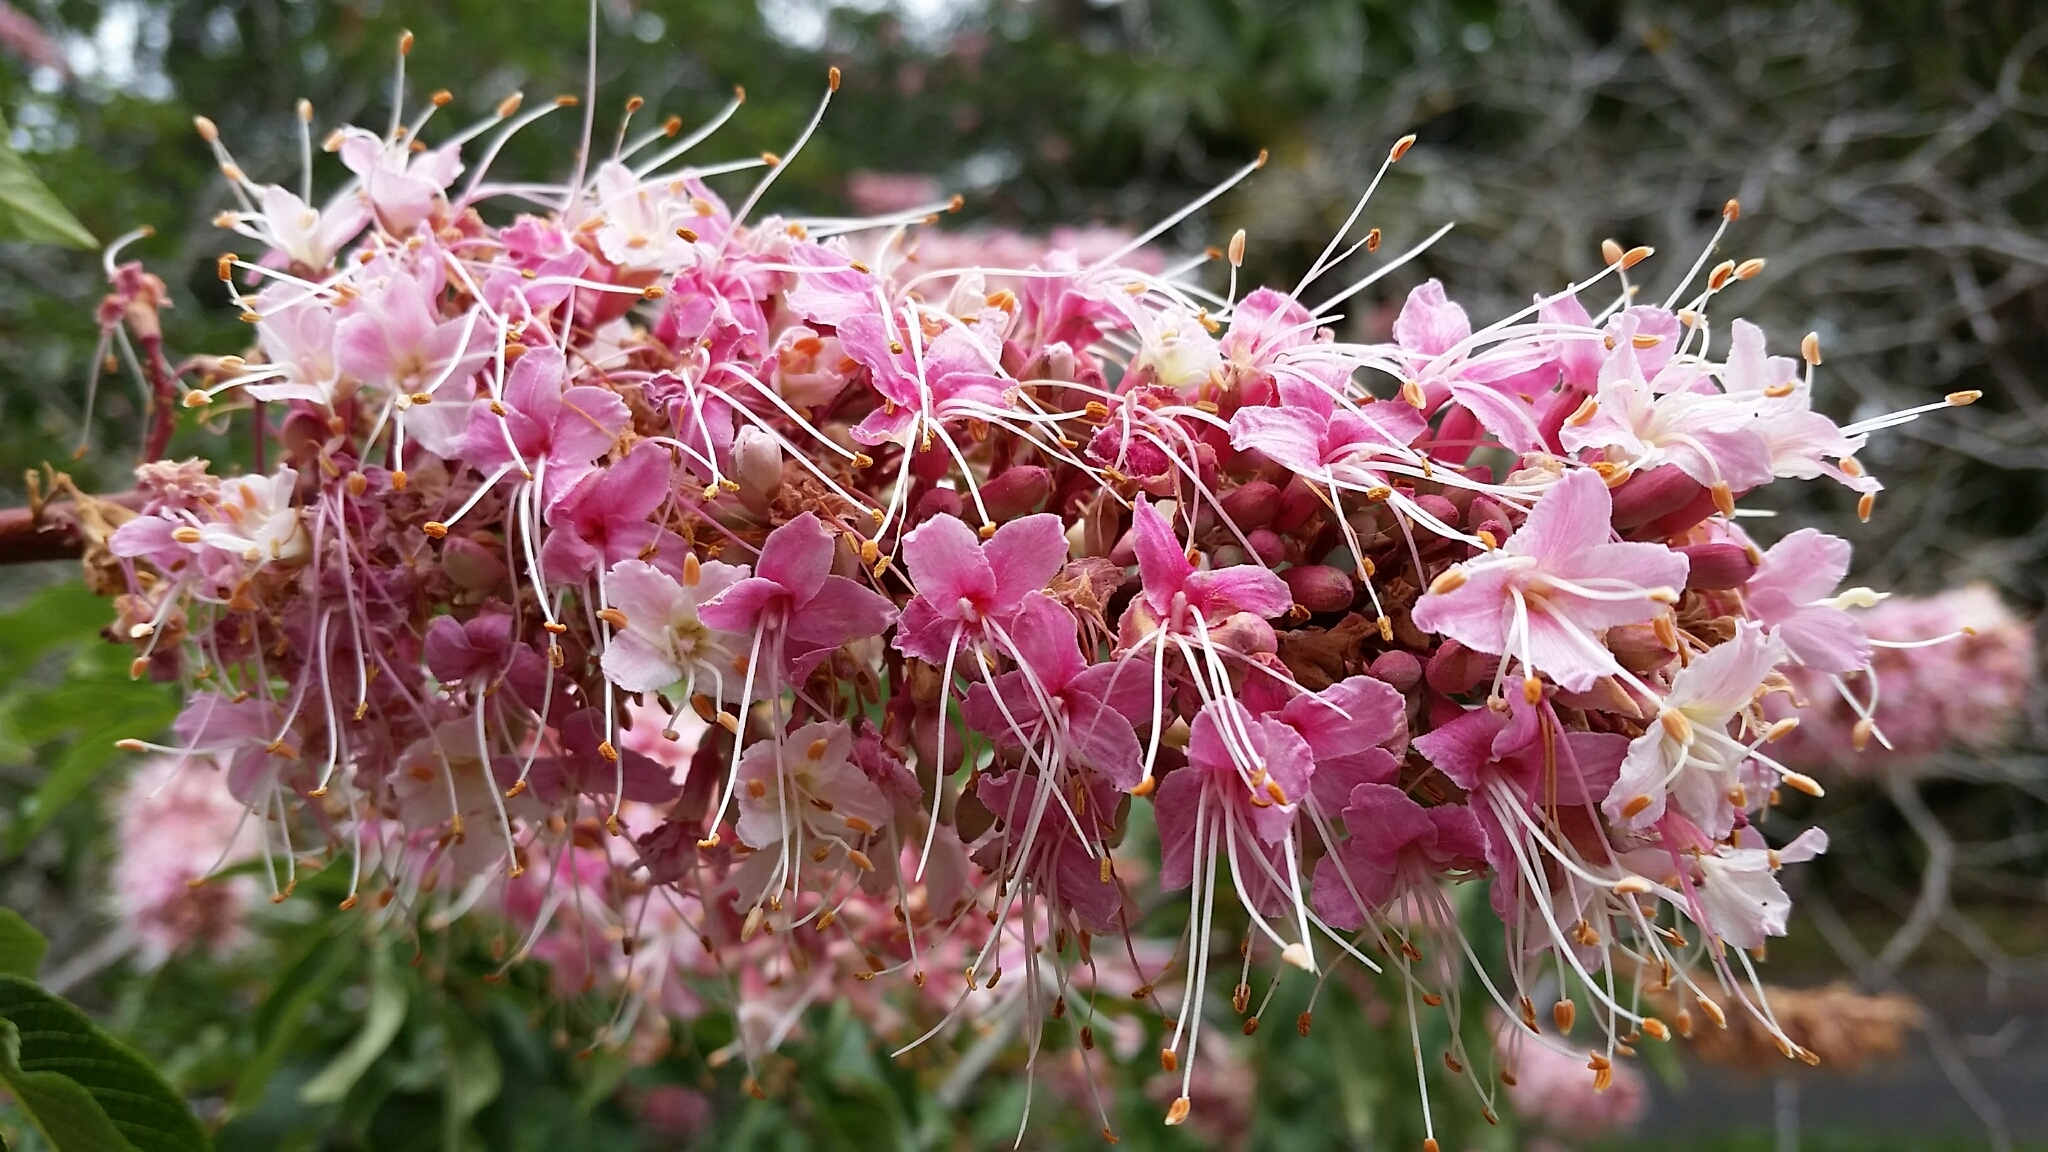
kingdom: Plantae
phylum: Tracheophyta
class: Magnoliopsida
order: Sapindales
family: Sapindaceae
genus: Aesculus
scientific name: Aesculus californica
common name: California buckeye
